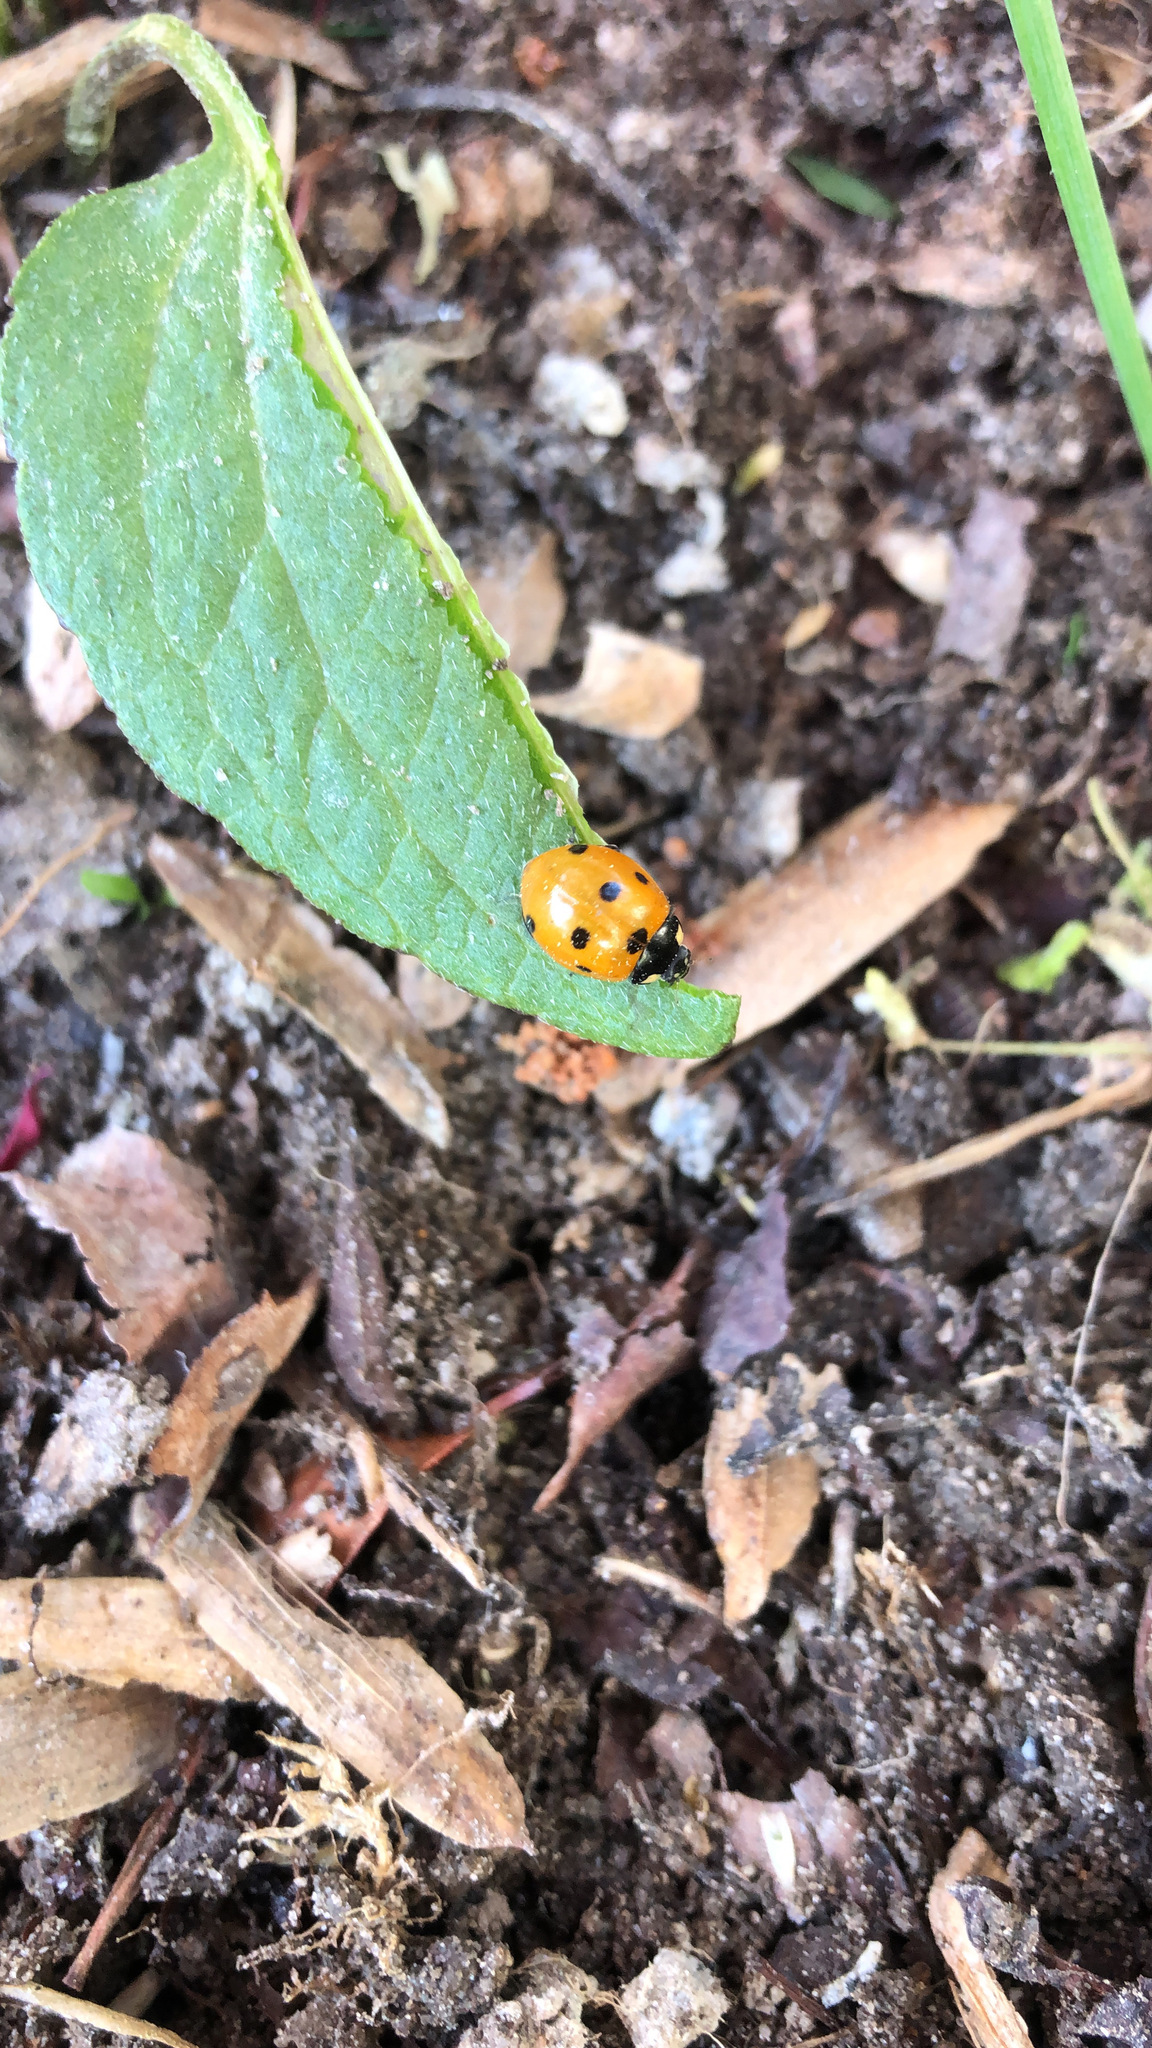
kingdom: Animalia
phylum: Arthropoda
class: Insecta
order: Coleoptera
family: Coccinellidae
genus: Coccinella
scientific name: Coccinella septempunctata
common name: Sevenspotted lady beetle
